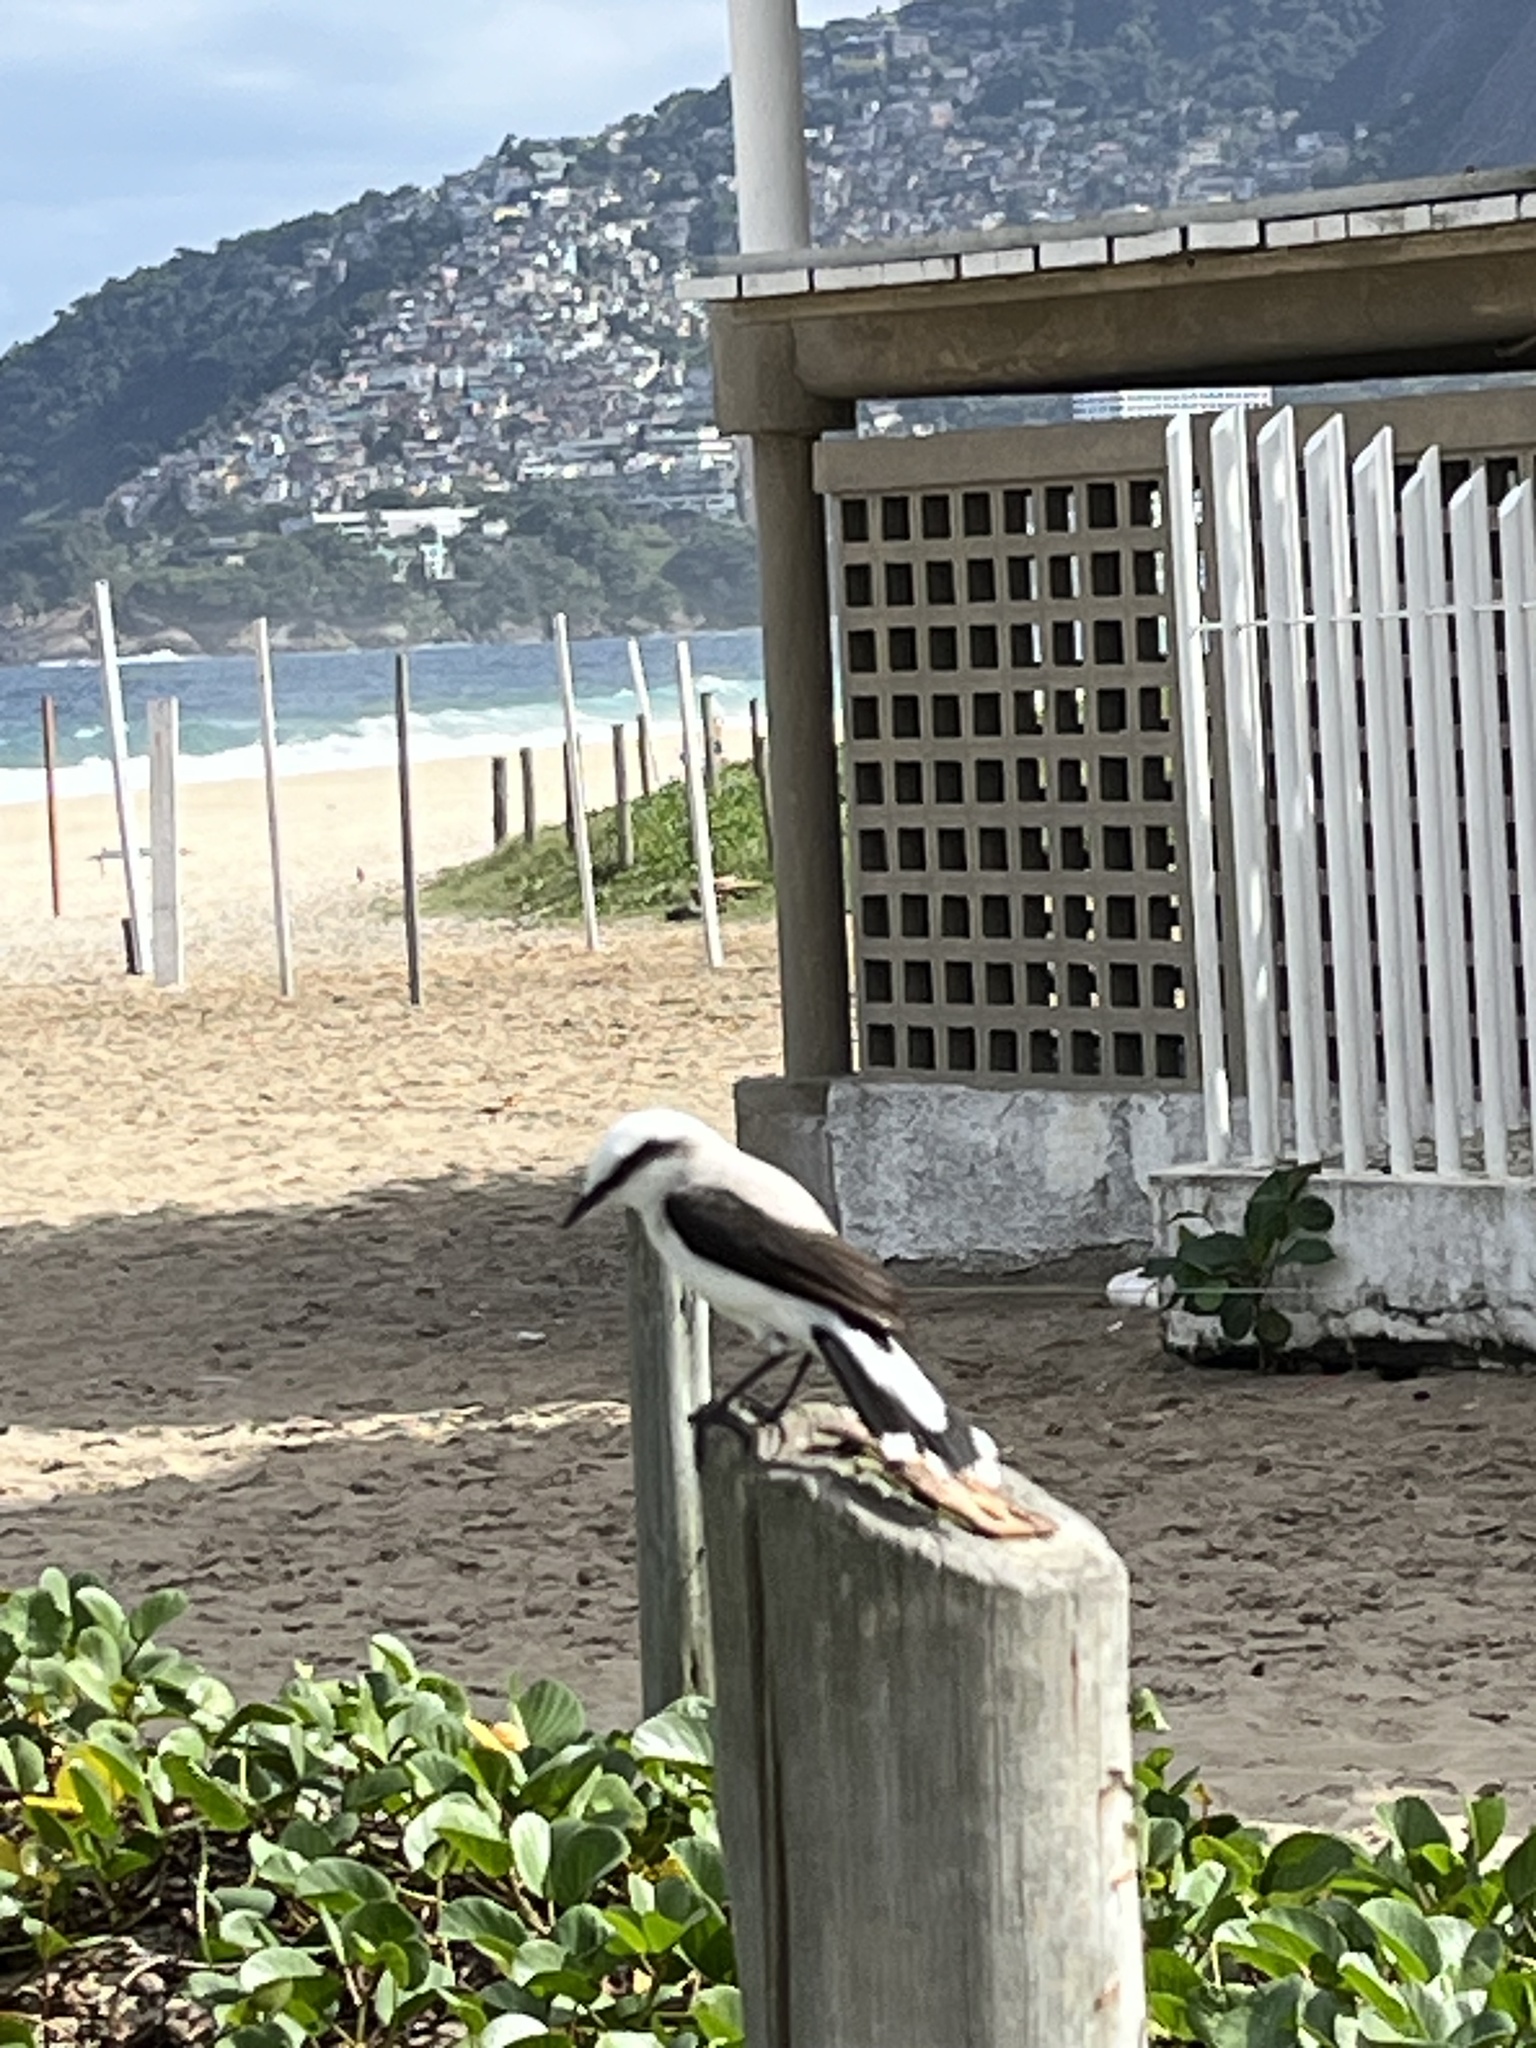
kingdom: Animalia
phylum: Chordata
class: Aves
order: Passeriformes
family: Tyrannidae
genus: Fluvicola
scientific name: Fluvicola nengeta
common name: Masked water tyrant
